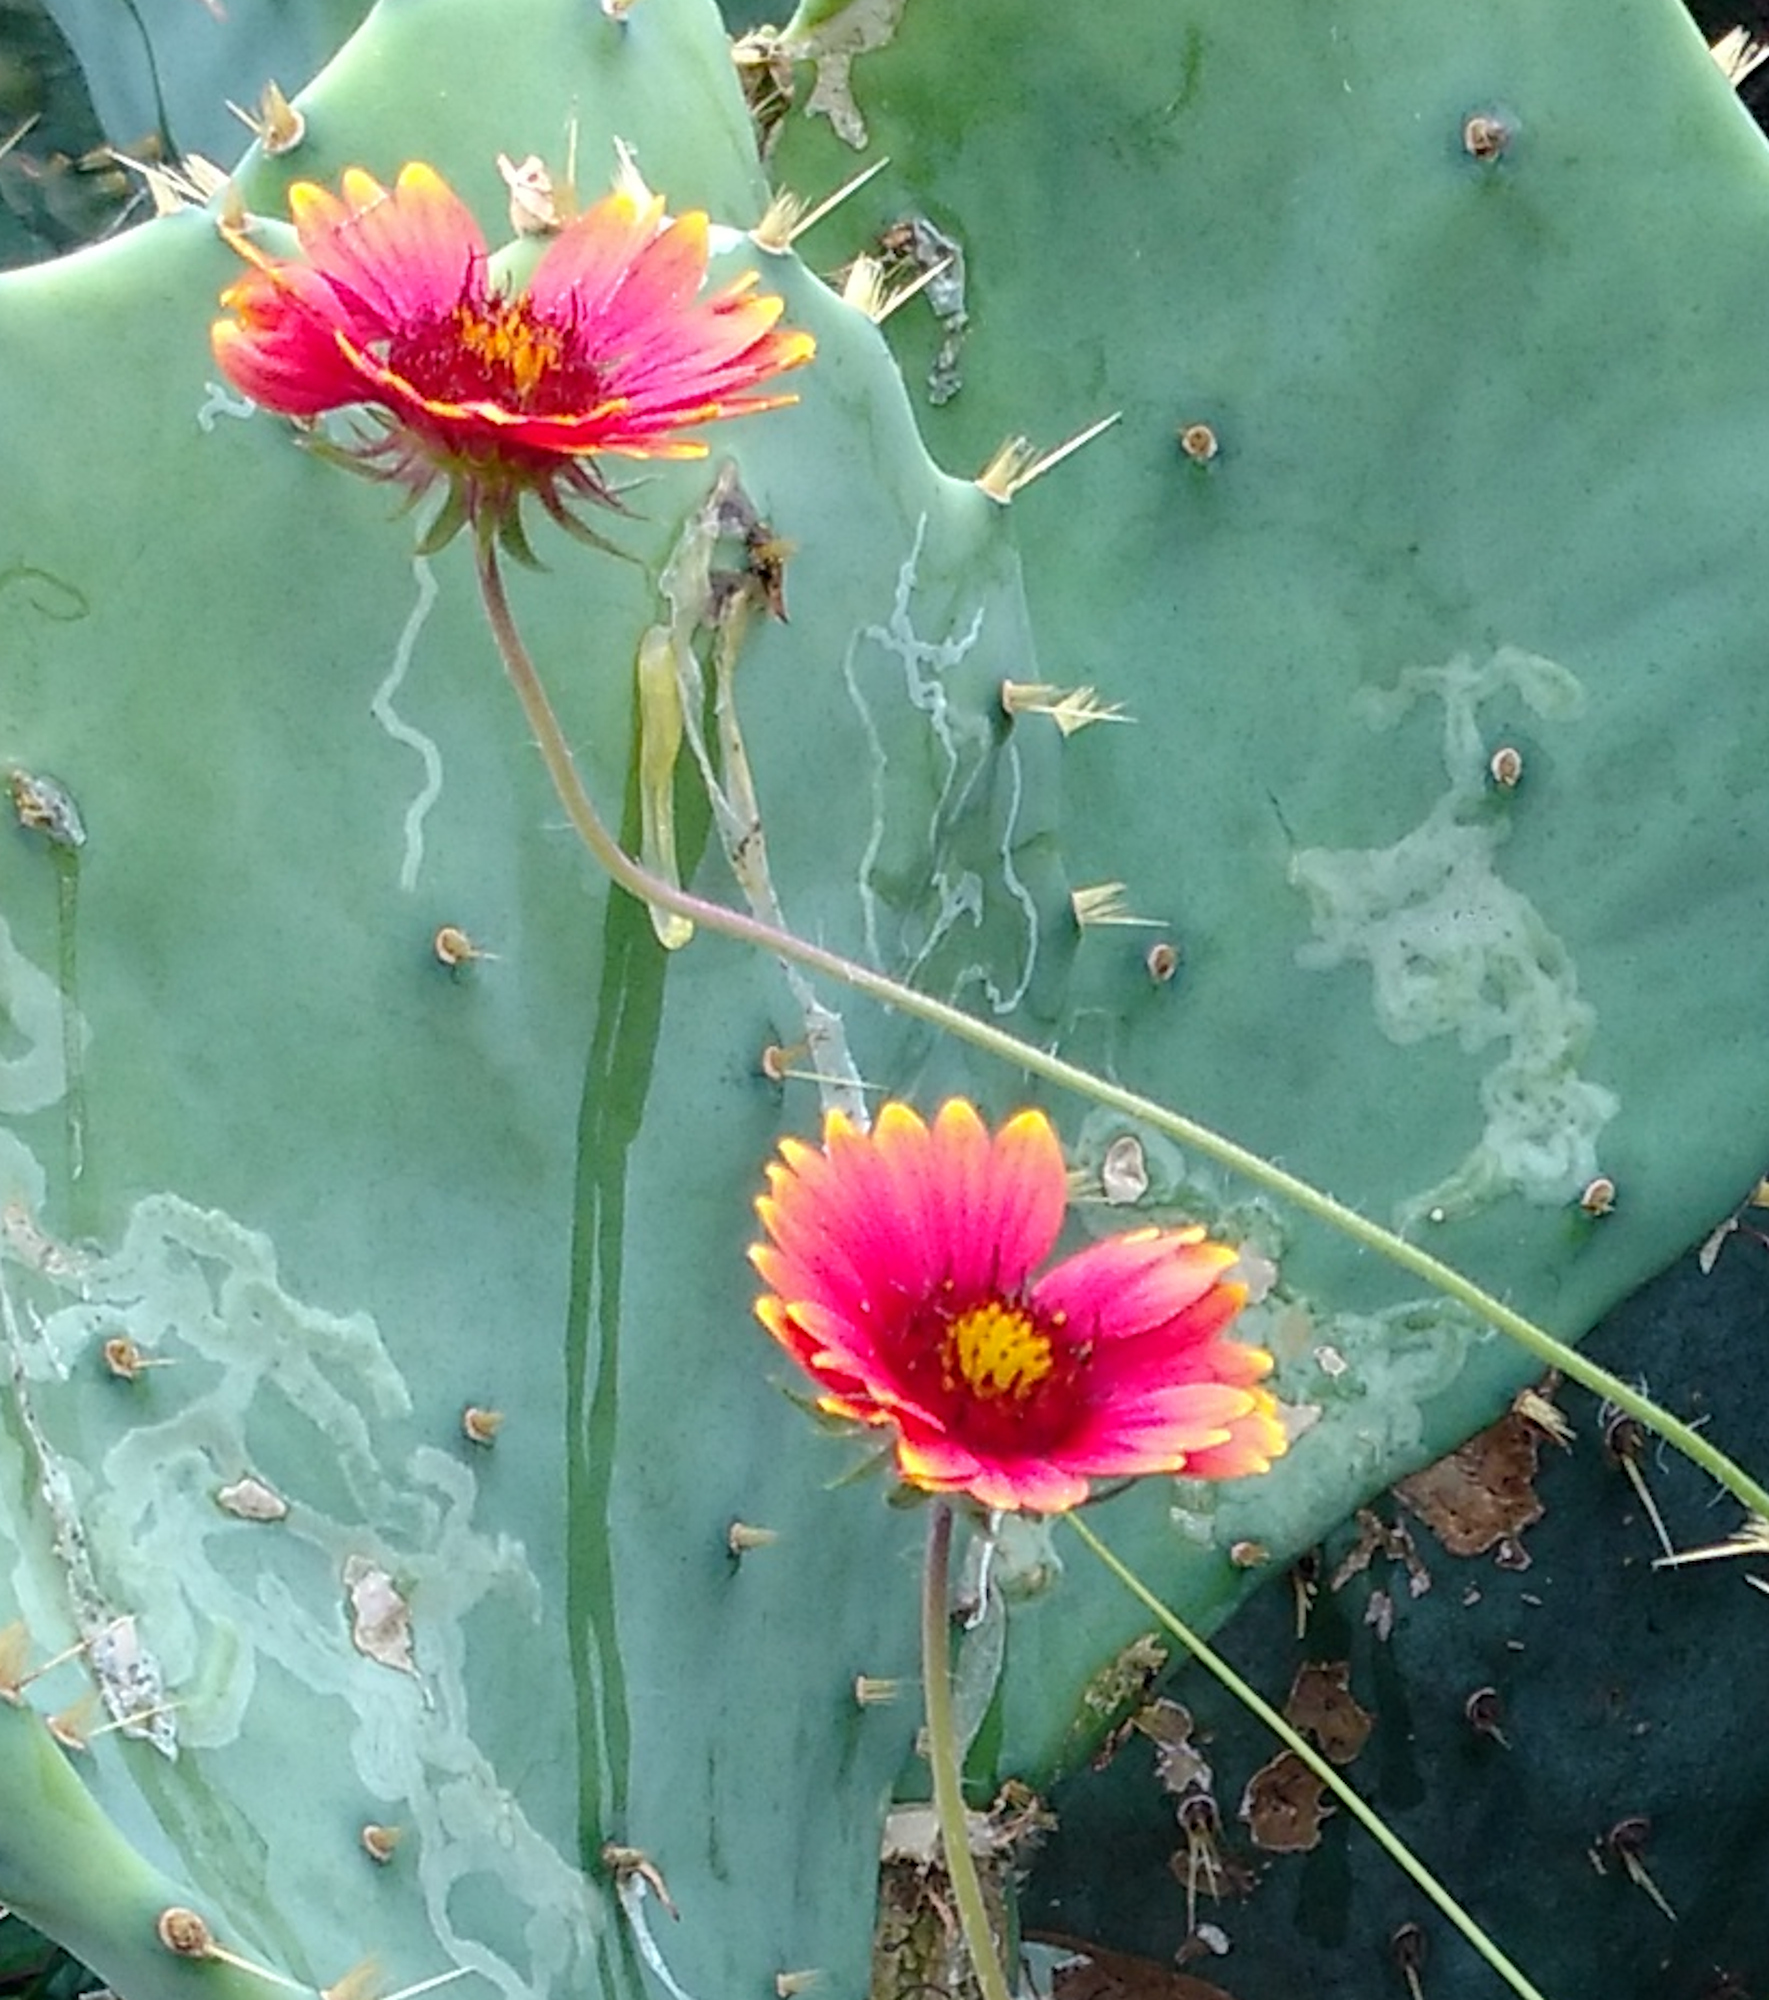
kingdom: Plantae
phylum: Tracheophyta
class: Magnoliopsida
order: Asterales
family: Asteraceae
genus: Gaillardia
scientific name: Gaillardia pulchella
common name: Firewheel
